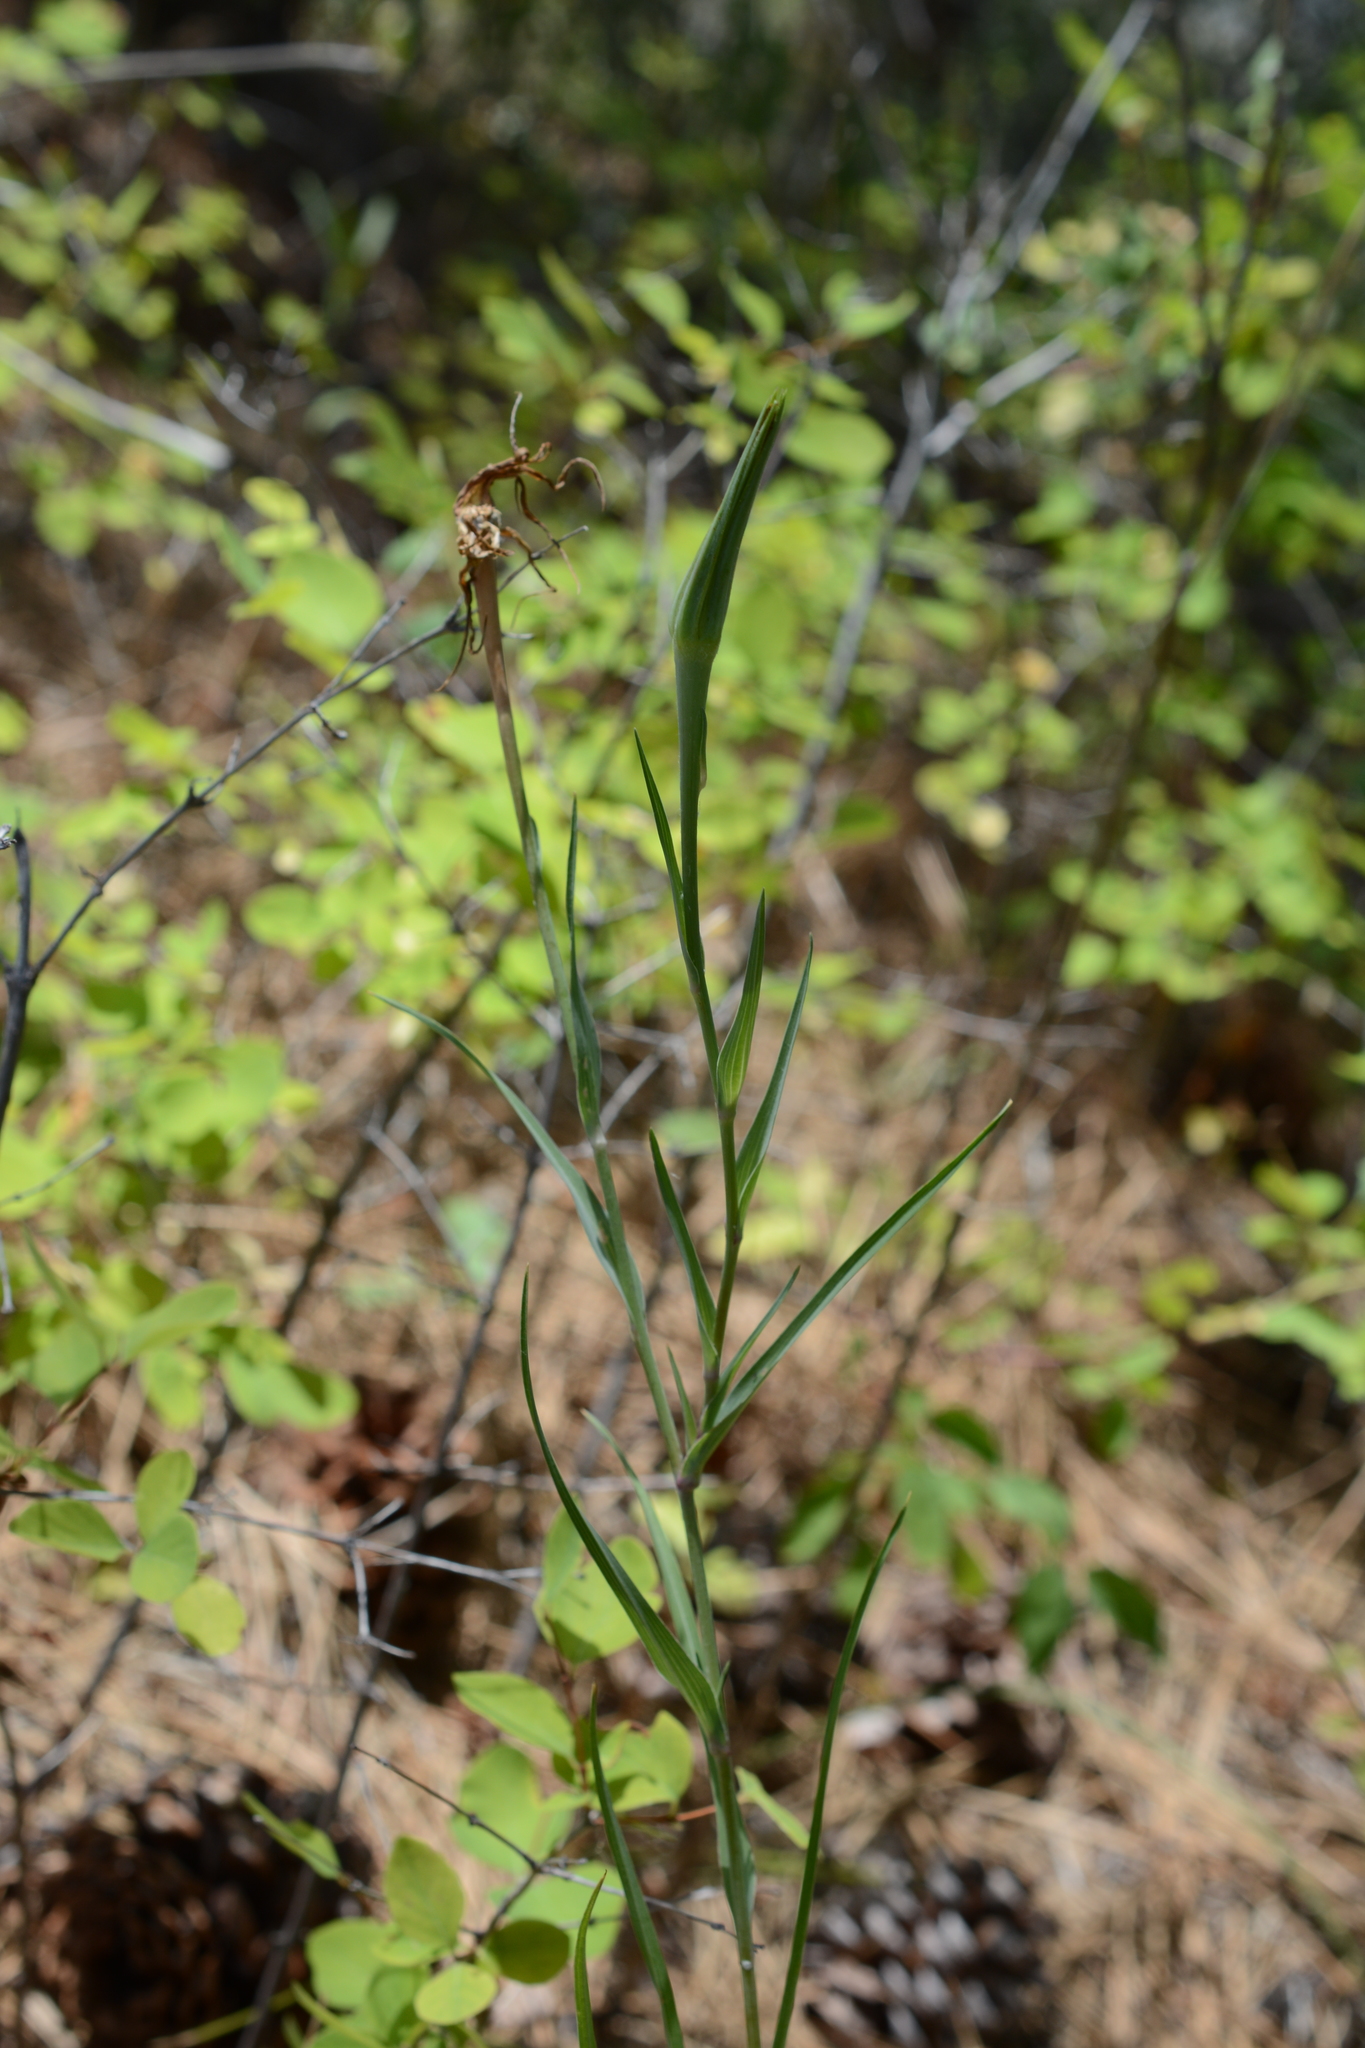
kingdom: Plantae
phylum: Tracheophyta
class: Magnoliopsida
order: Asterales
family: Asteraceae
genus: Tragopogon
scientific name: Tragopogon dubius
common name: Yellow salsify
